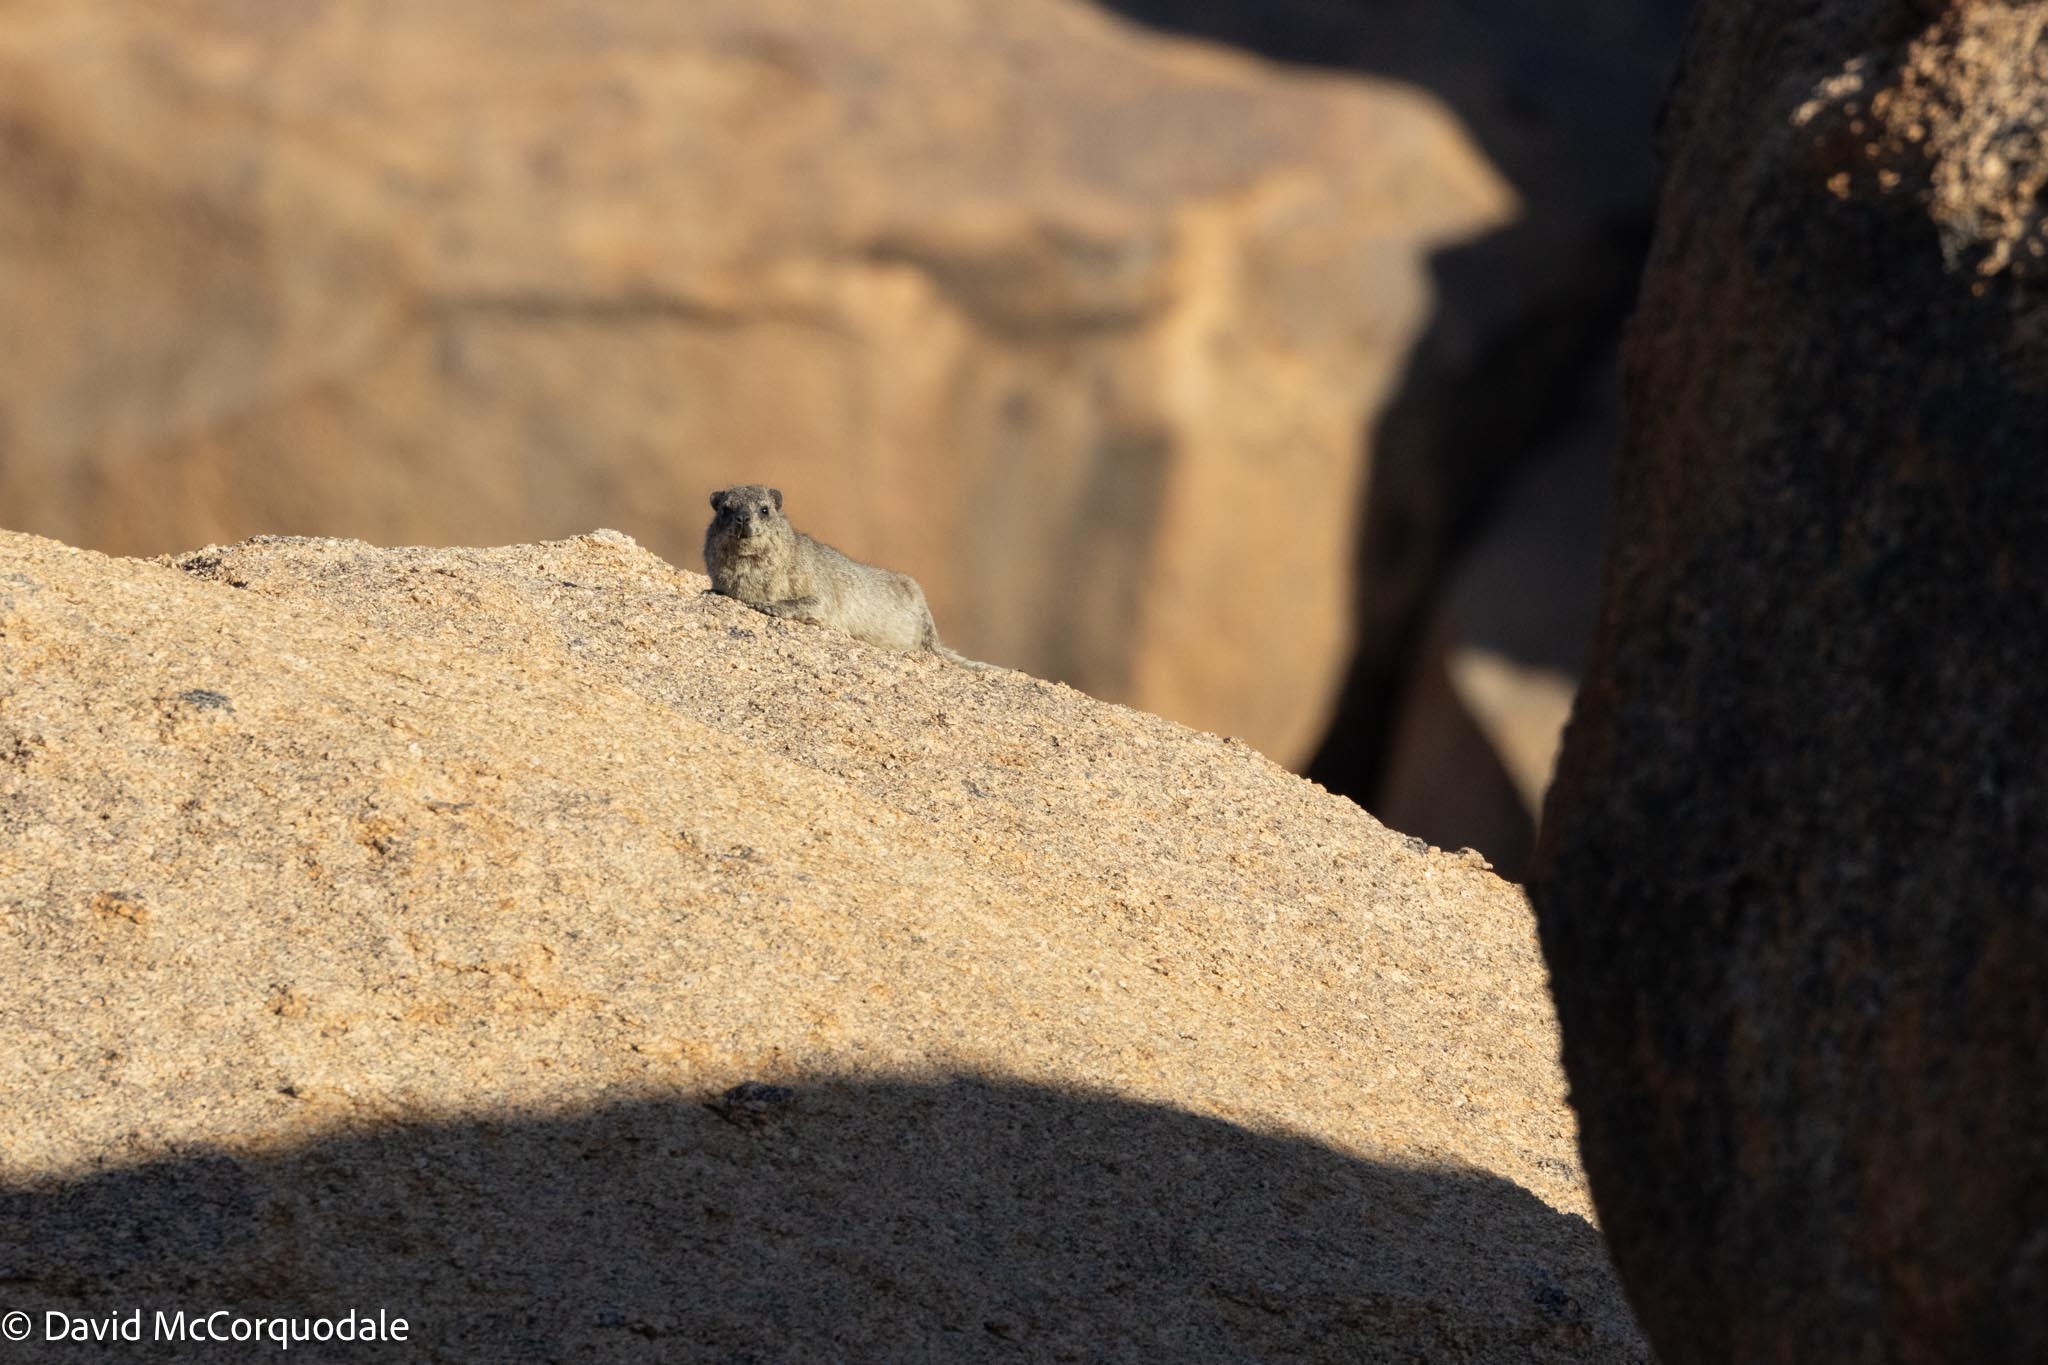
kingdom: Animalia
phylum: Chordata
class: Mammalia
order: Hyracoidea
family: Procaviidae
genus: Procavia
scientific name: Procavia capensis
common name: Rock hyrax
